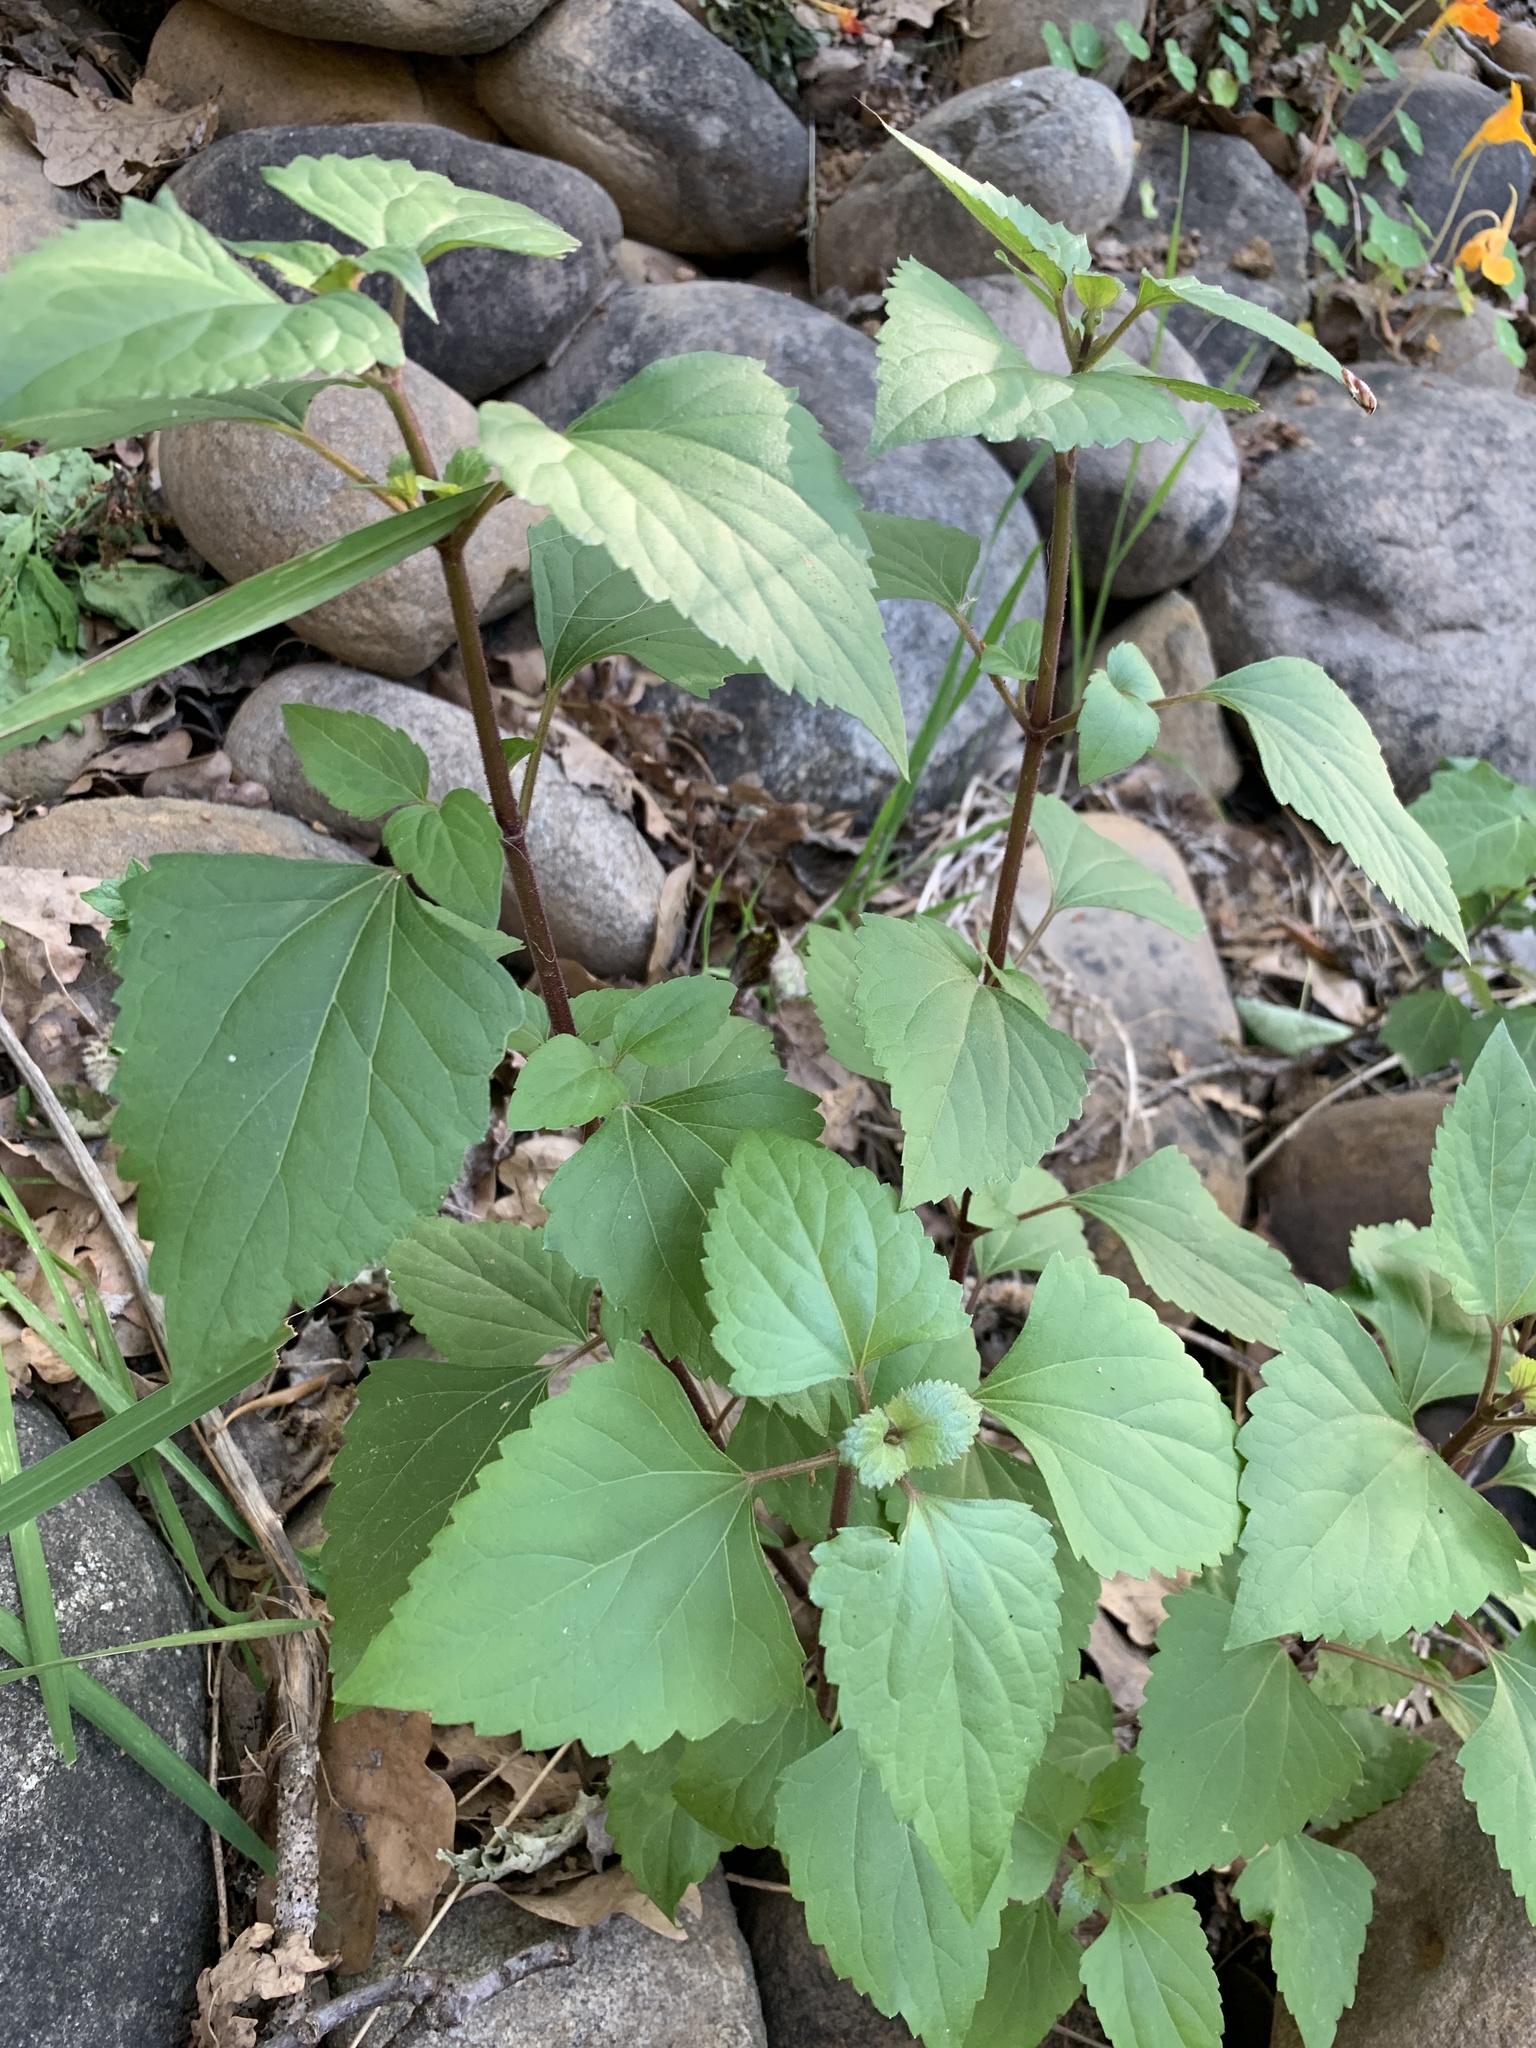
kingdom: Plantae
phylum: Tracheophyta
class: Magnoliopsida
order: Asterales
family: Asteraceae
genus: Ageratina
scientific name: Ageratina adenophora
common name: Sticky snakeroot
